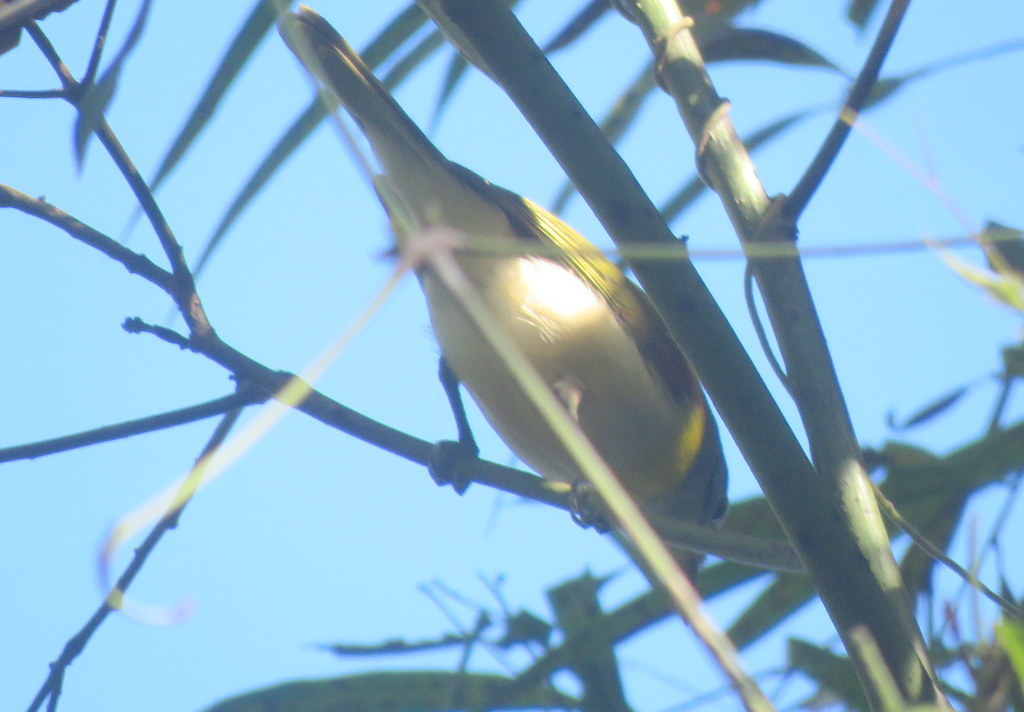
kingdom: Animalia
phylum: Chordata
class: Aves
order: Passeriformes
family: Cotingidae
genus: Pachyramphus
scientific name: Pachyramphus viridis
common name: Green-backed becard
